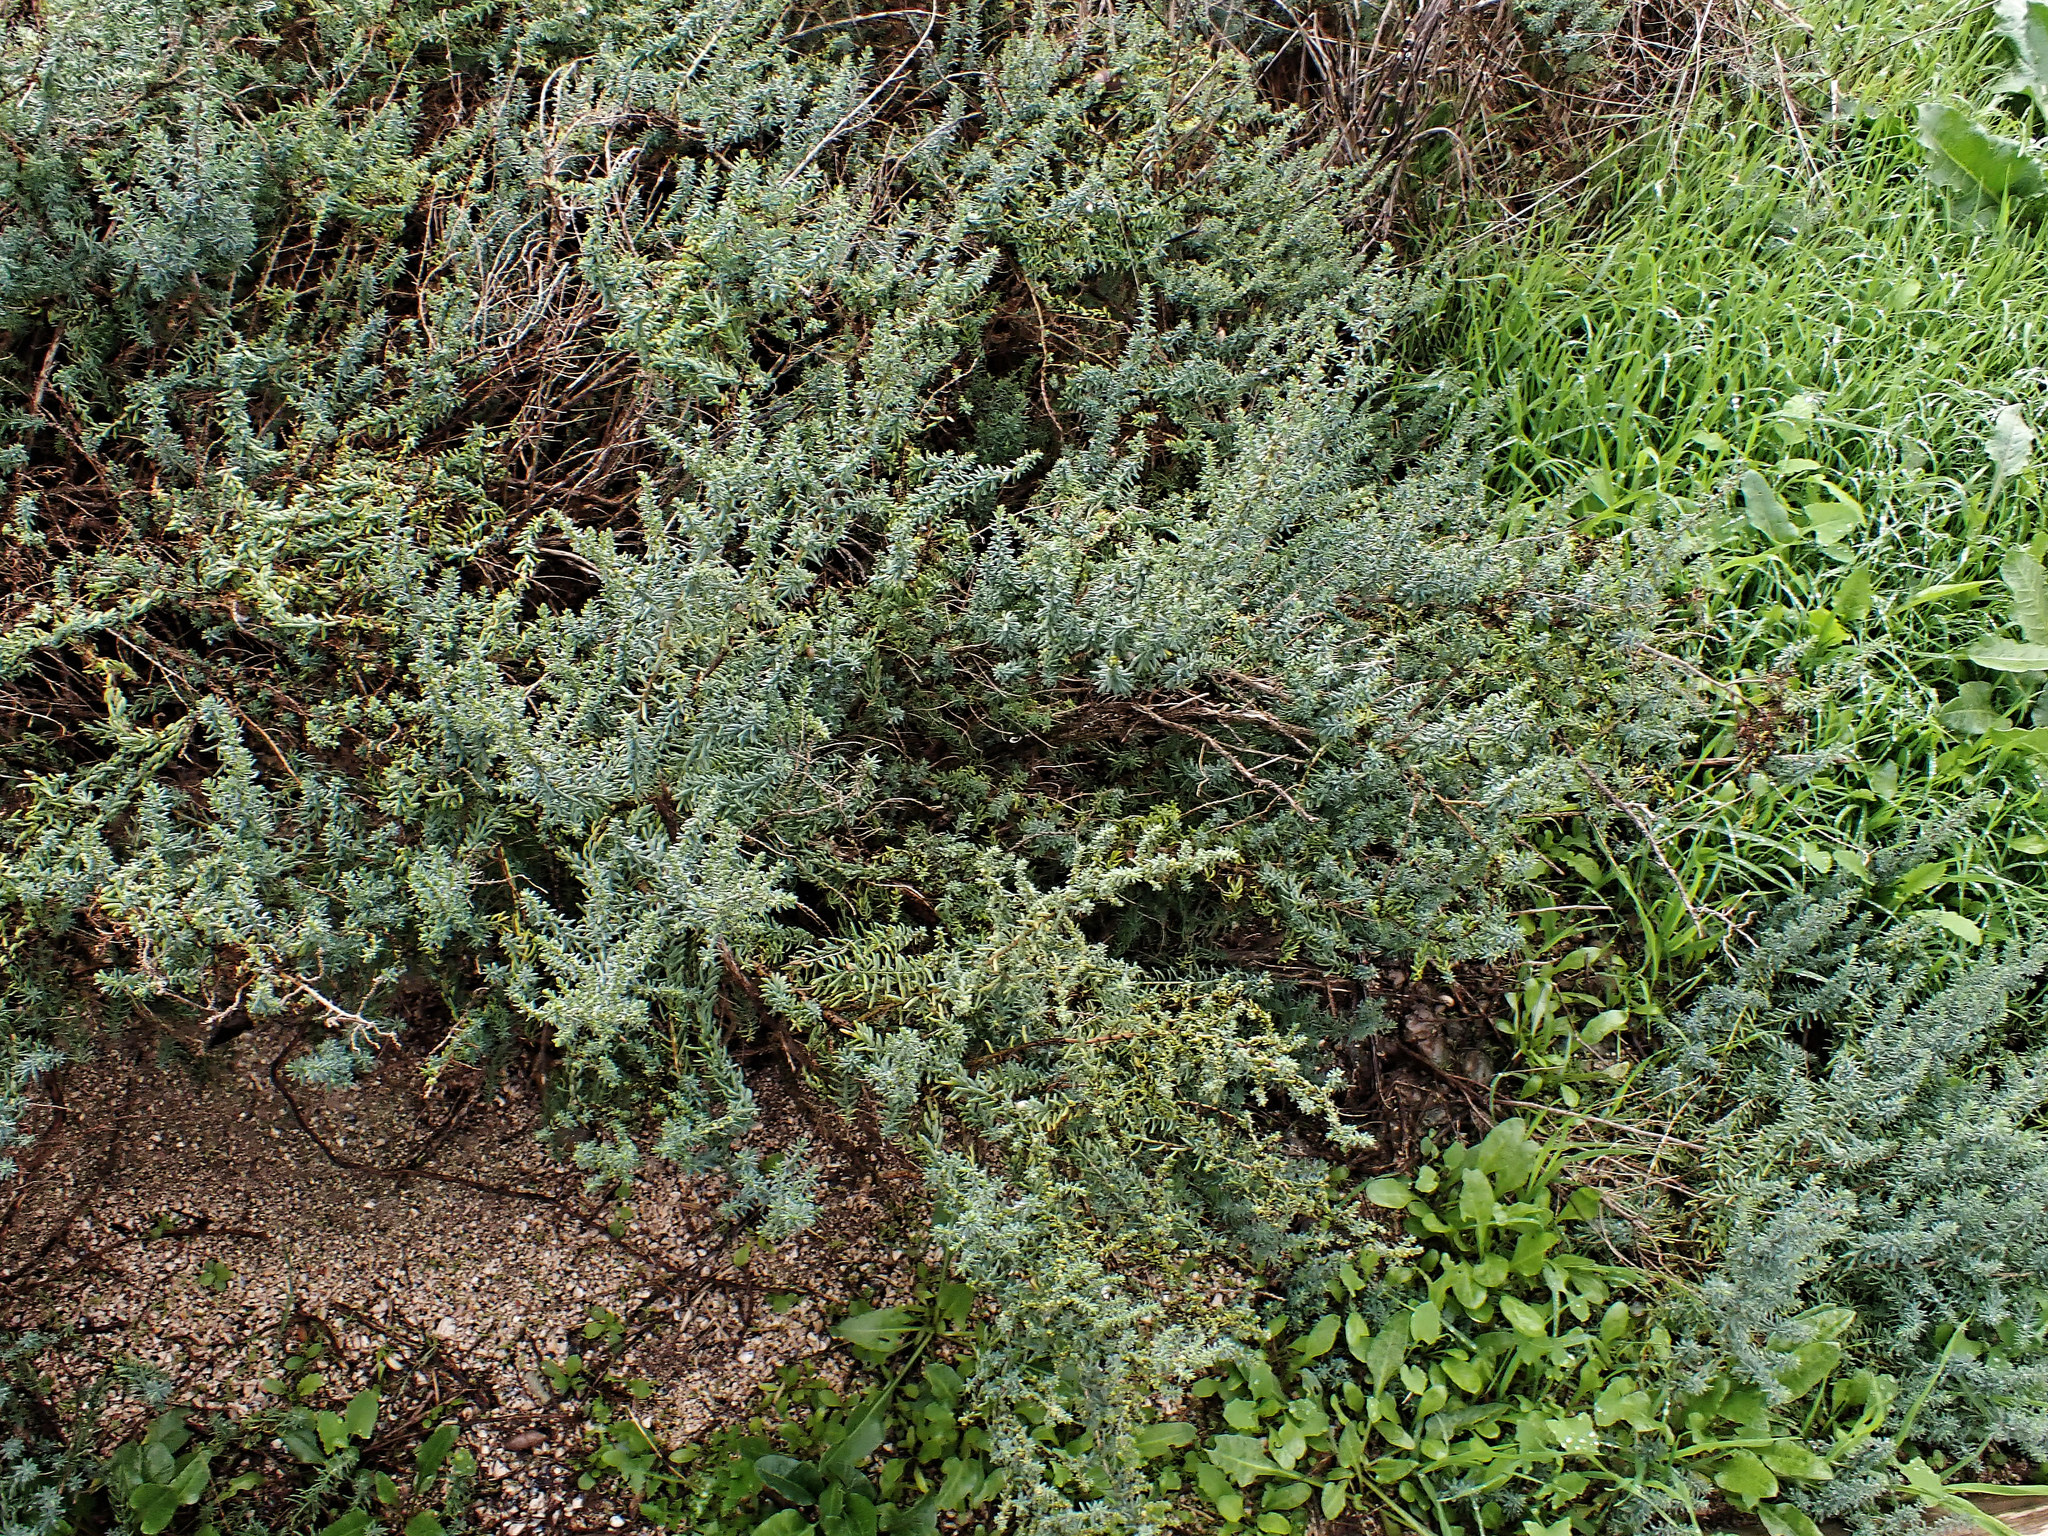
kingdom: Plantae
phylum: Tracheophyta
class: Magnoliopsida
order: Caryophyllales
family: Amaranthaceae
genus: Suaeda
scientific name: Suaeda vera
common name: Shrubby sea-blite
